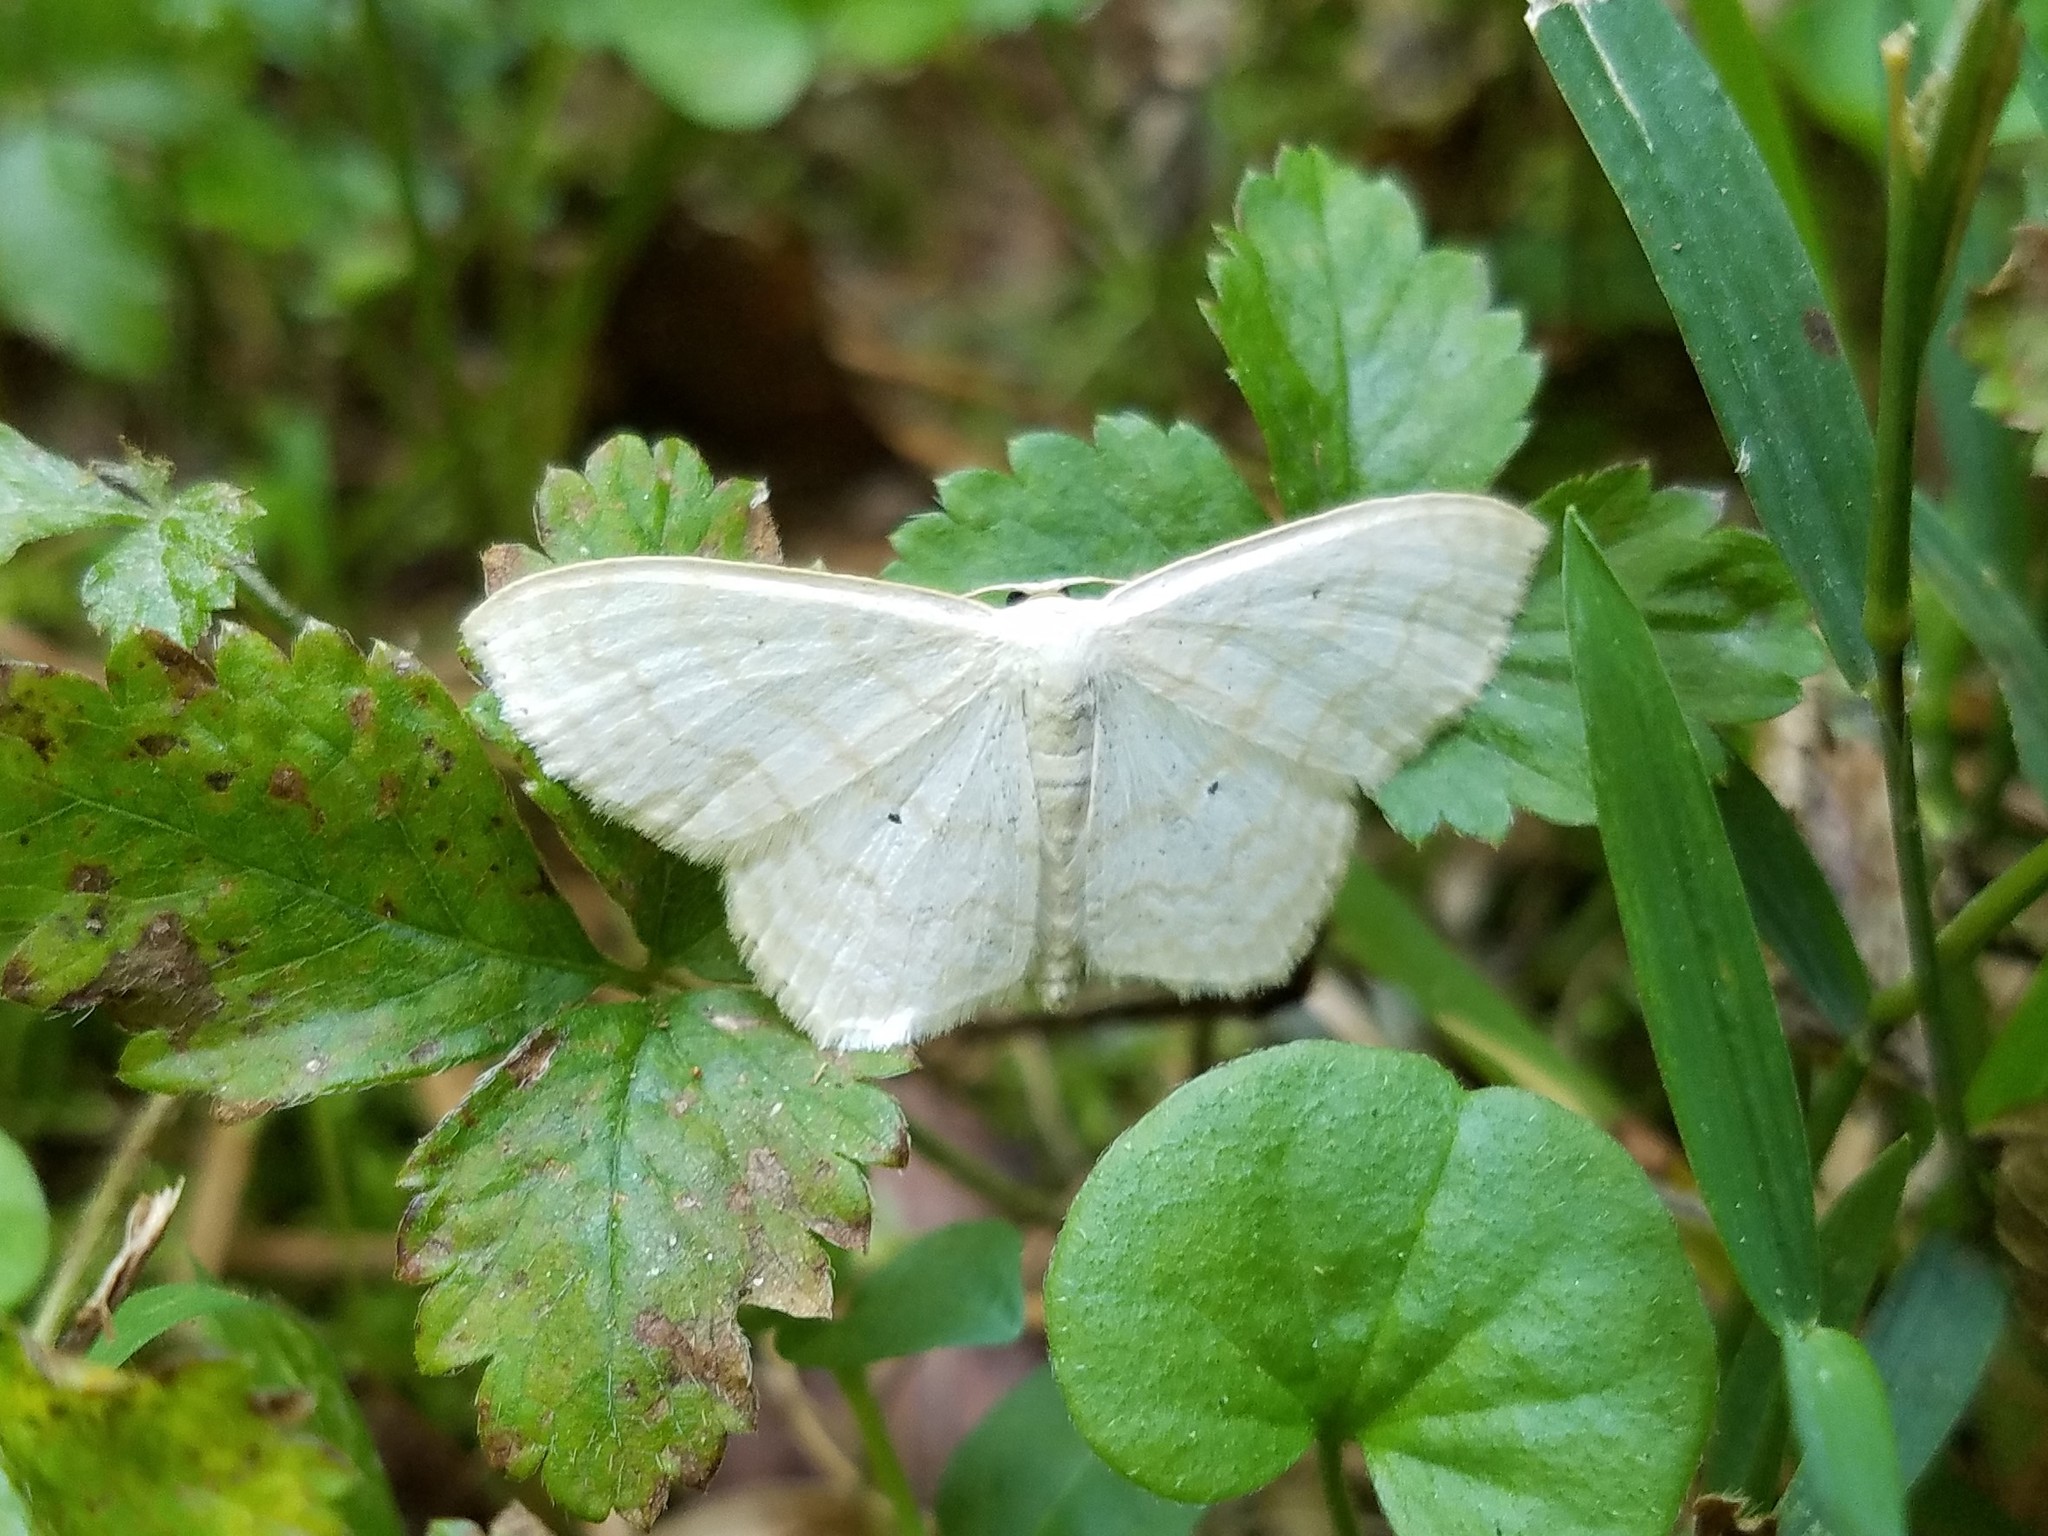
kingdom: Animalia
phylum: Arthropoda
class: Insecta
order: Lepidoptera
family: Geometridae
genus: Scopula
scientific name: Scopula limboundata
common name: Large lace border
